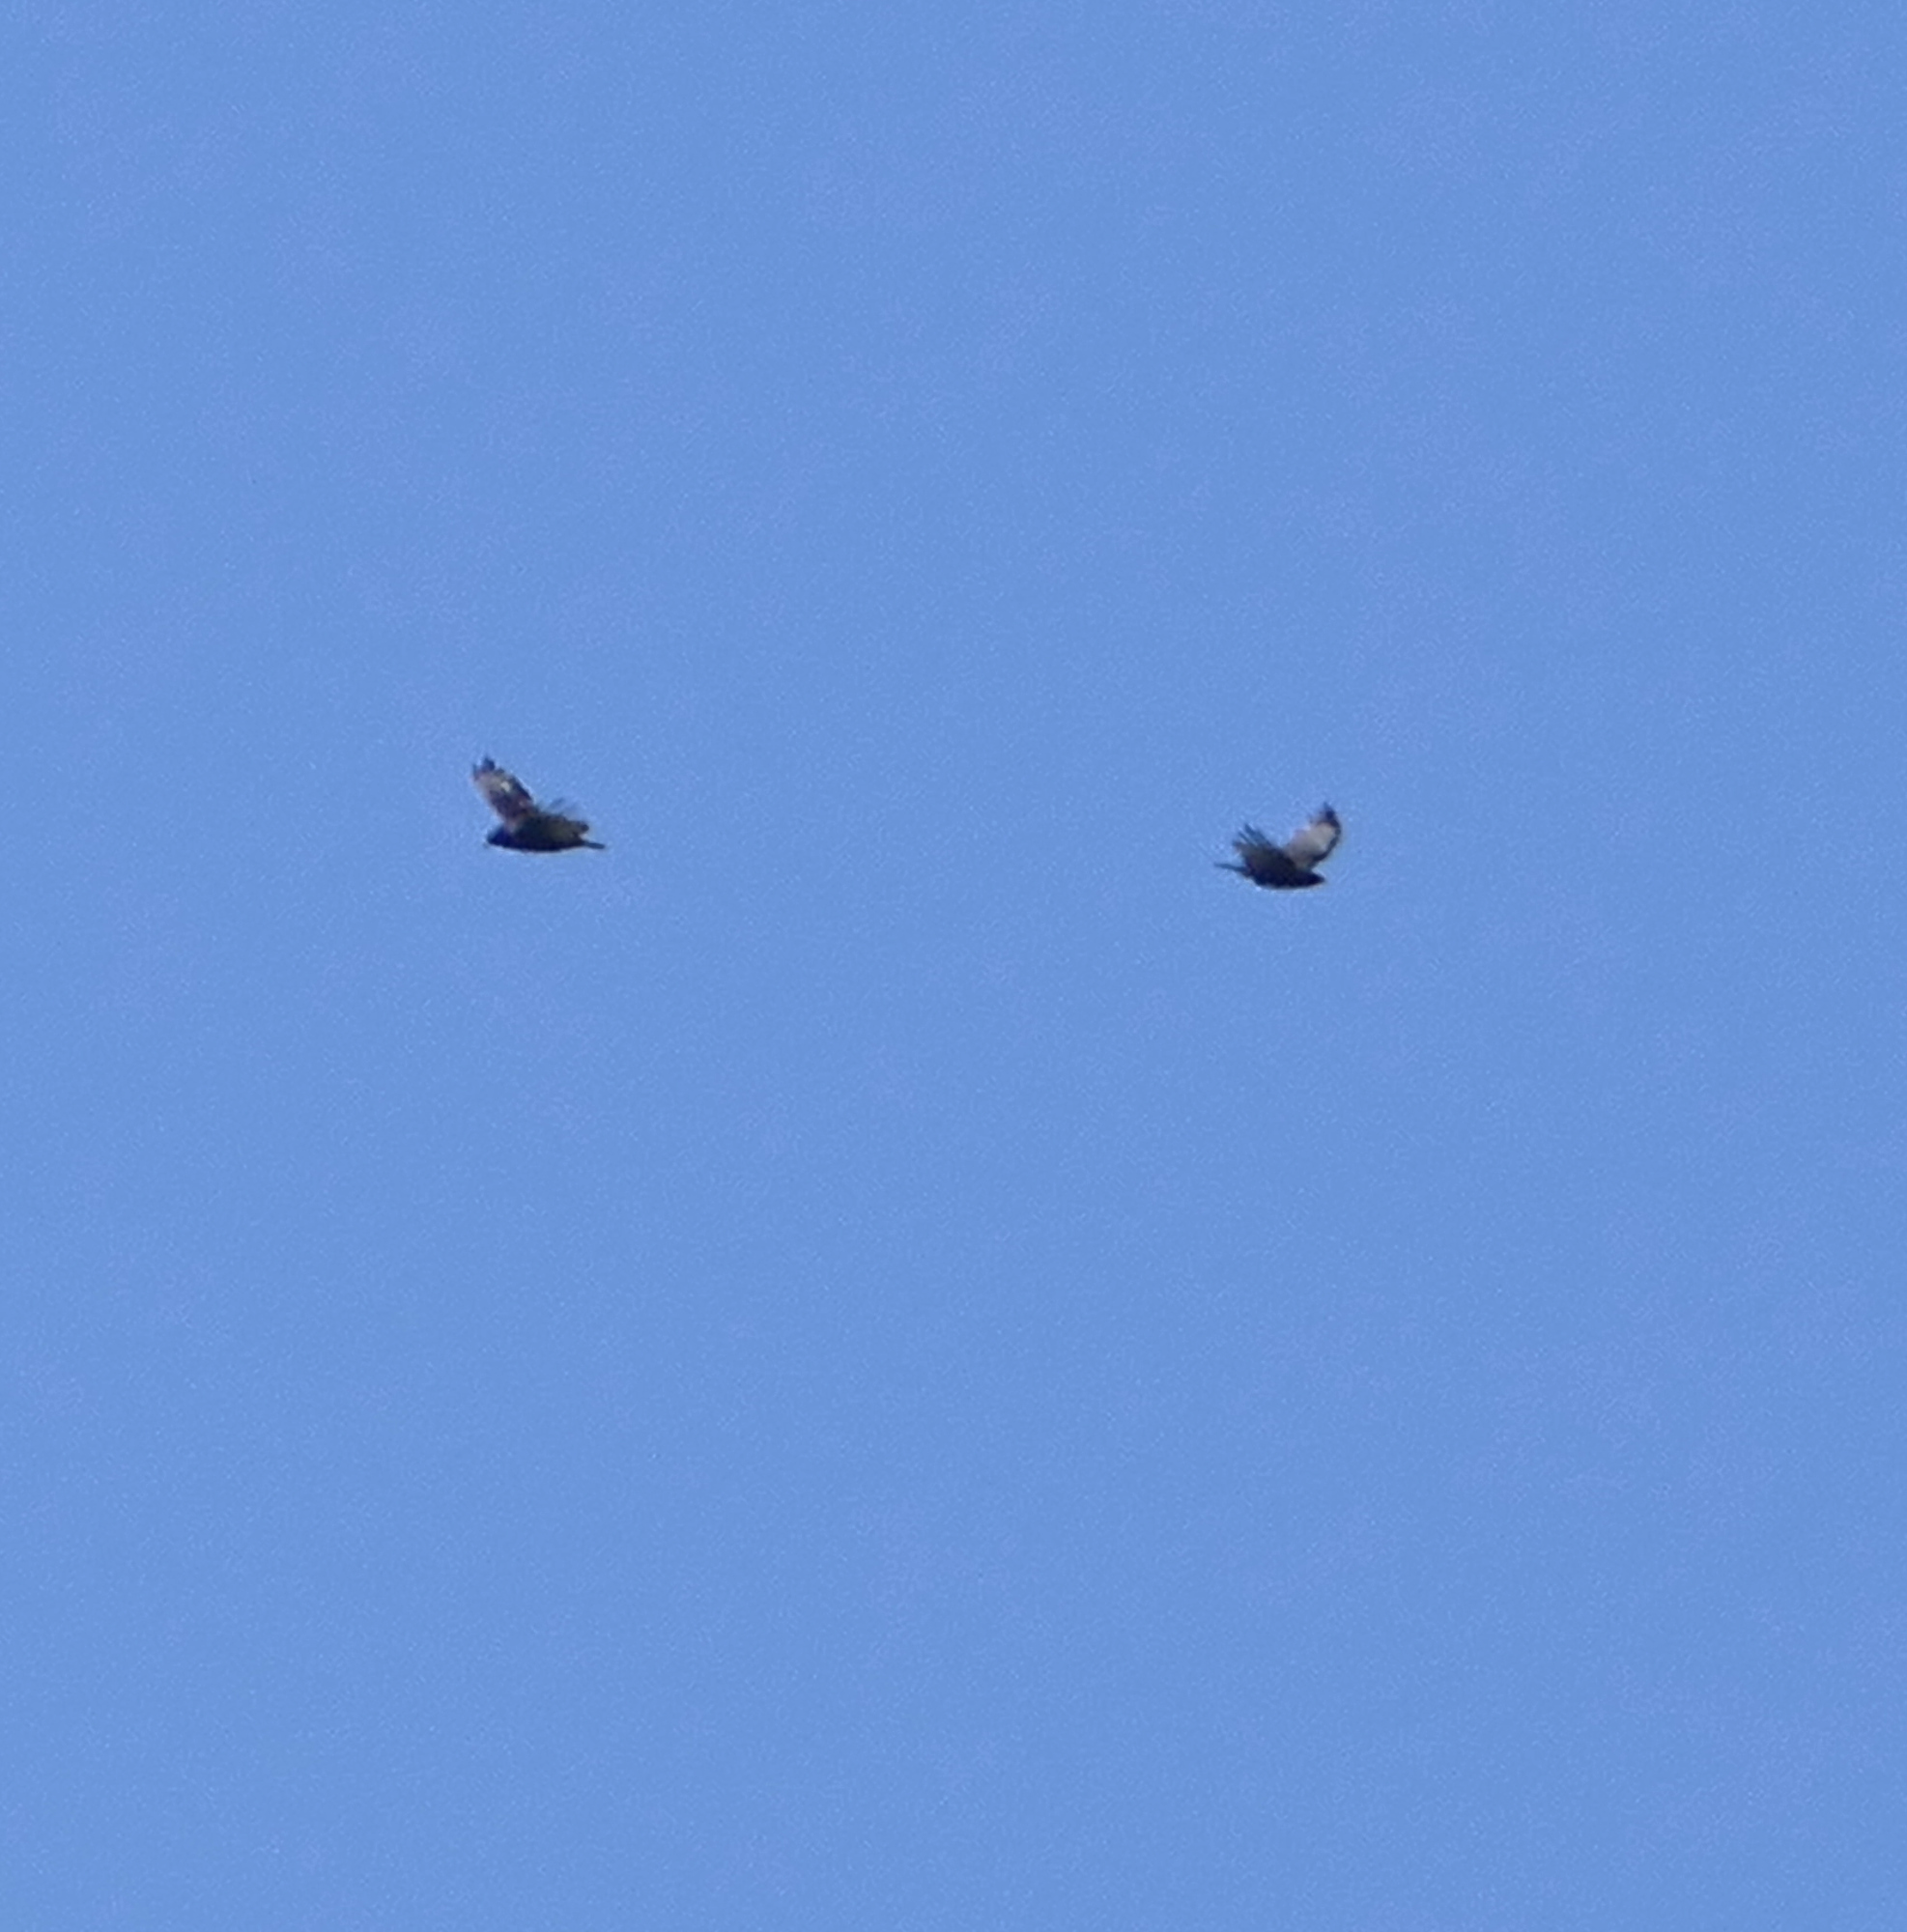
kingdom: Animalia
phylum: Chordata
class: Aves
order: Accipitriformes
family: Accipitridae
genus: Buteo
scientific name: Buteo albonotatus
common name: Zone-tailed hawk
